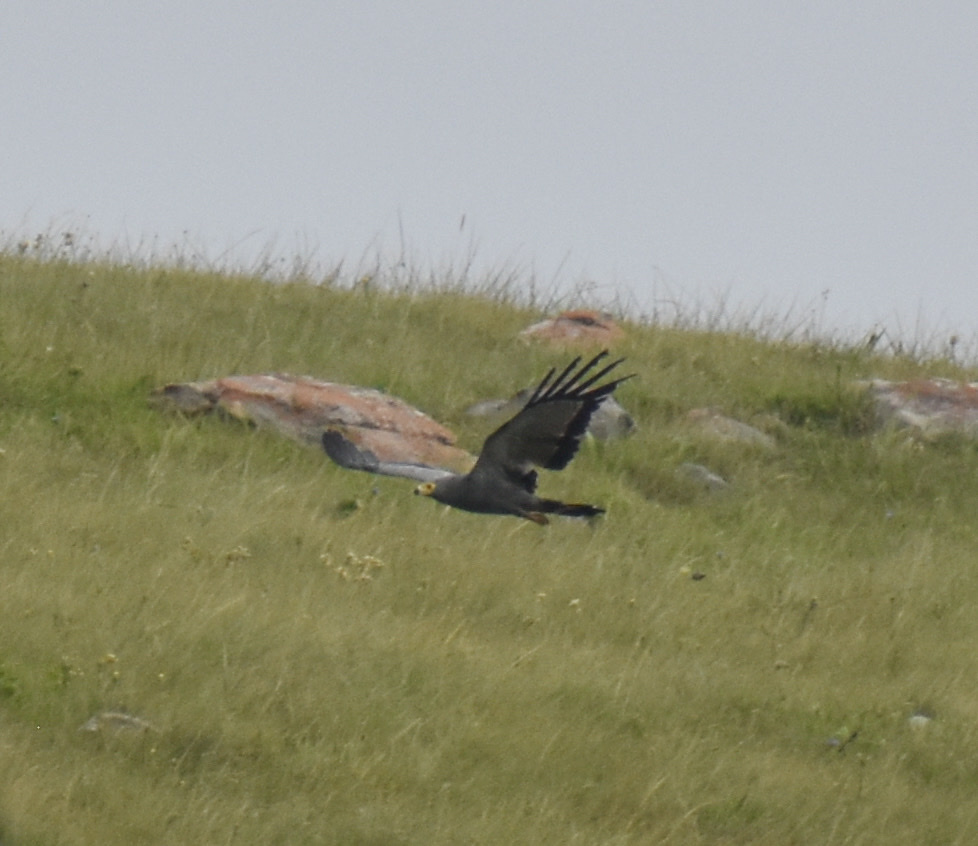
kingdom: Animalia
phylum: Chordata
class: Aves
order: Accipitriformes
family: Accipitridae
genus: Polyboroides
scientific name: Polyboroides typus
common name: African harrier-hawk
